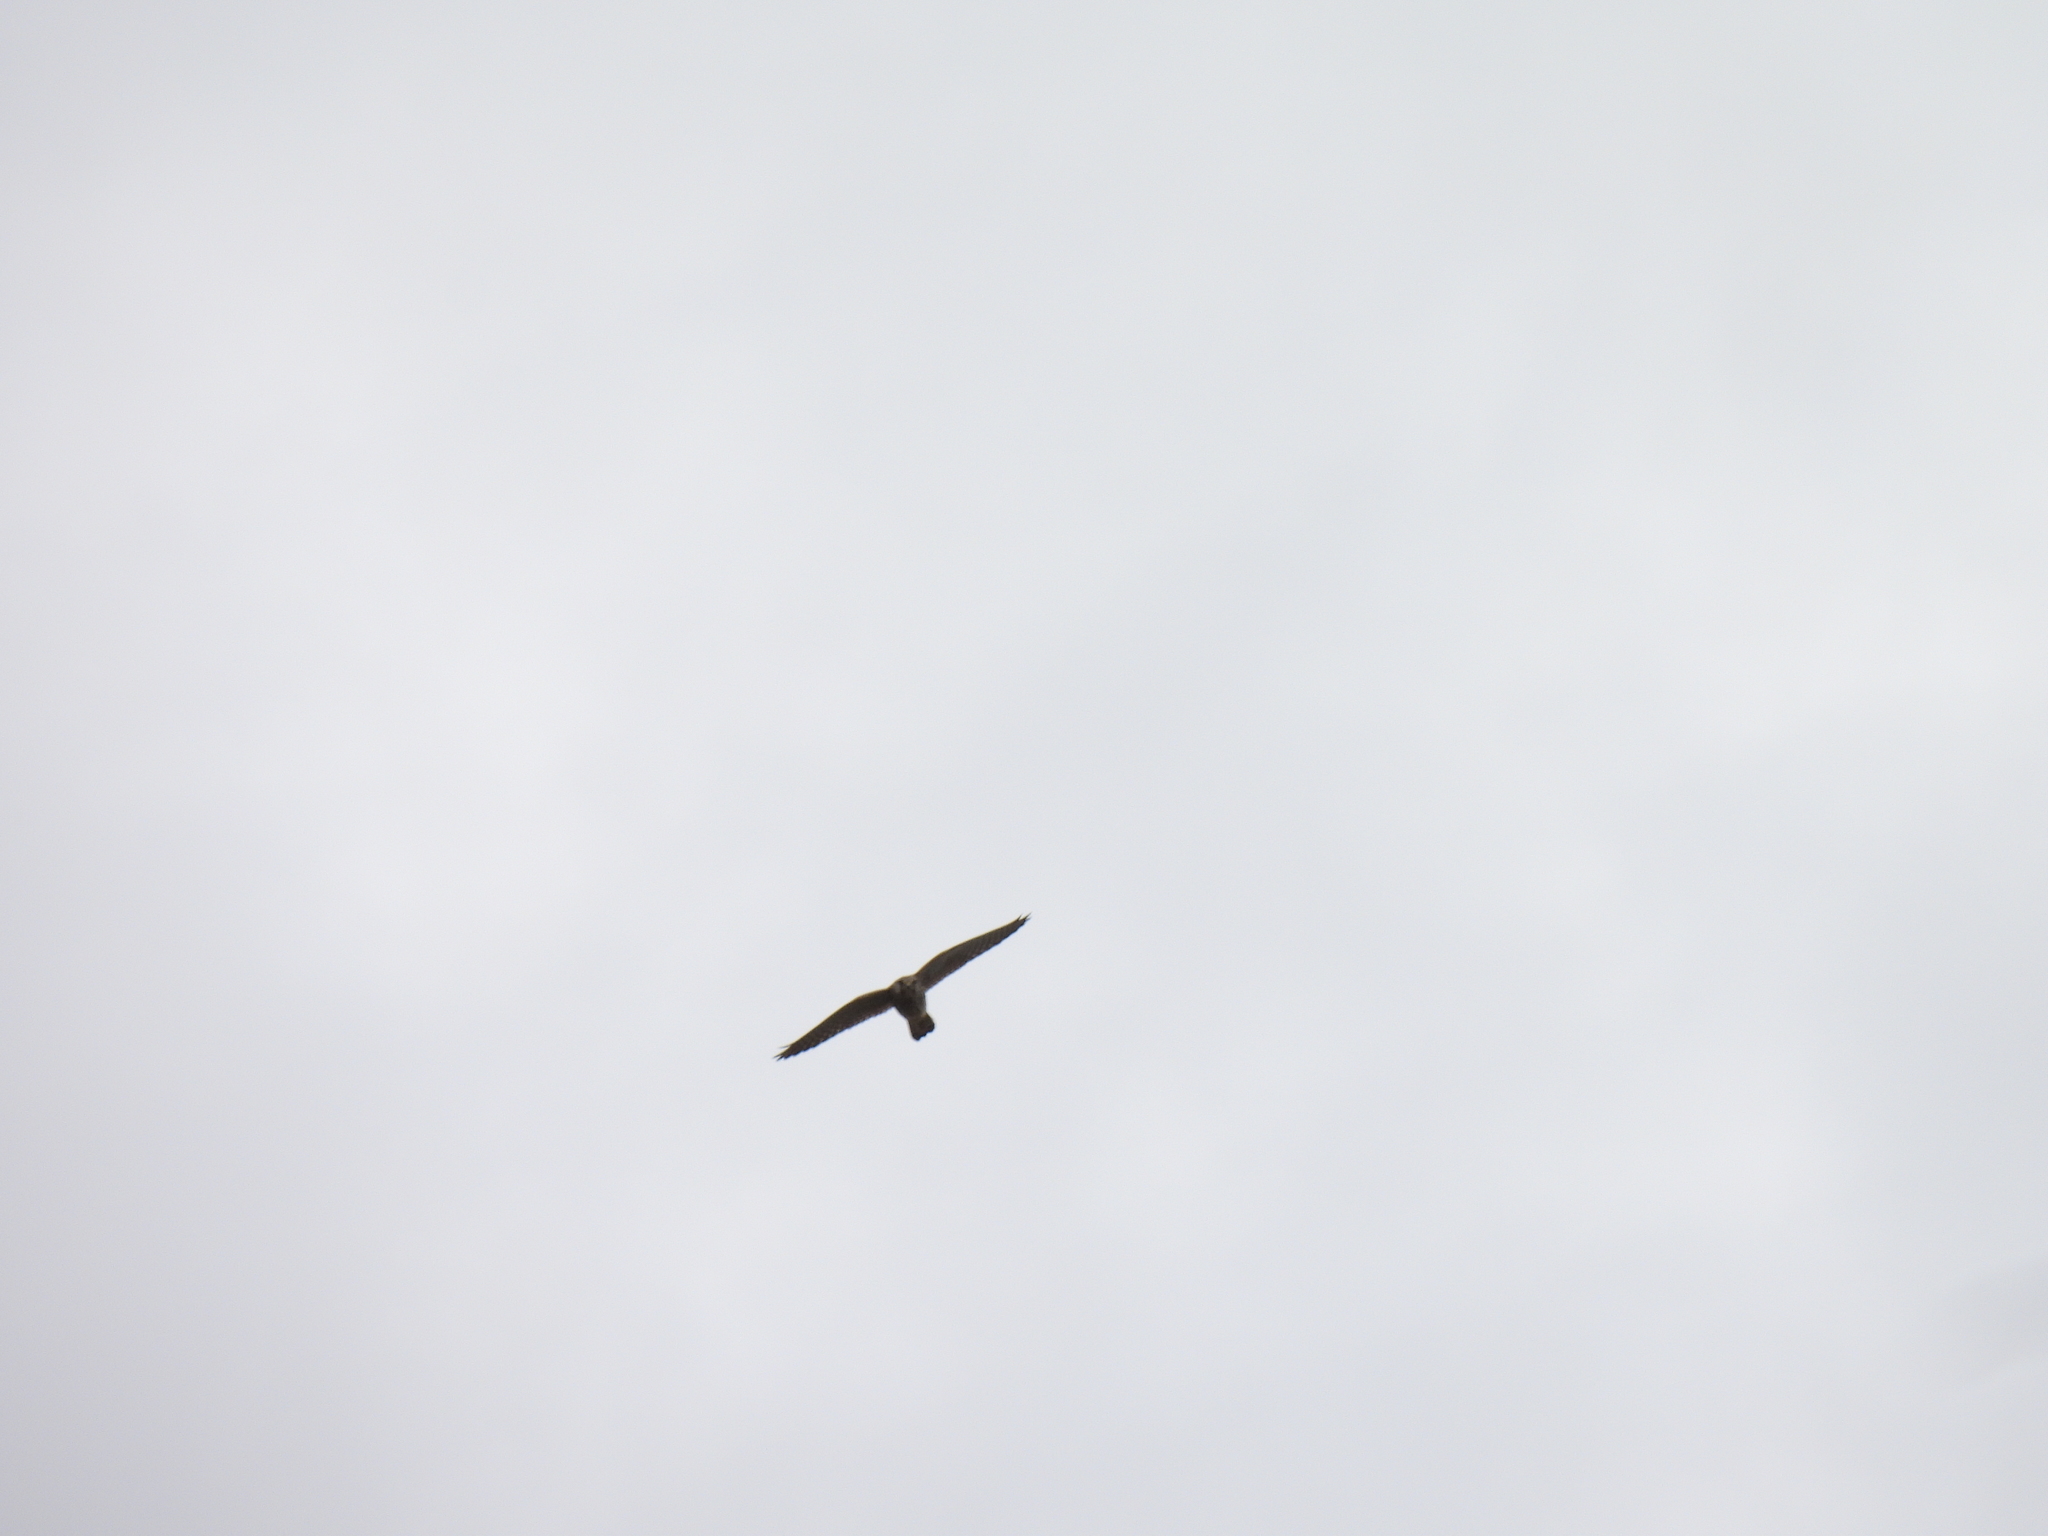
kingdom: Animalia
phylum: Chordata
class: Aves
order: Falconiformes
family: Falconidae
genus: Falco
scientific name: Falco tinnunculus
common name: Common kestrel
